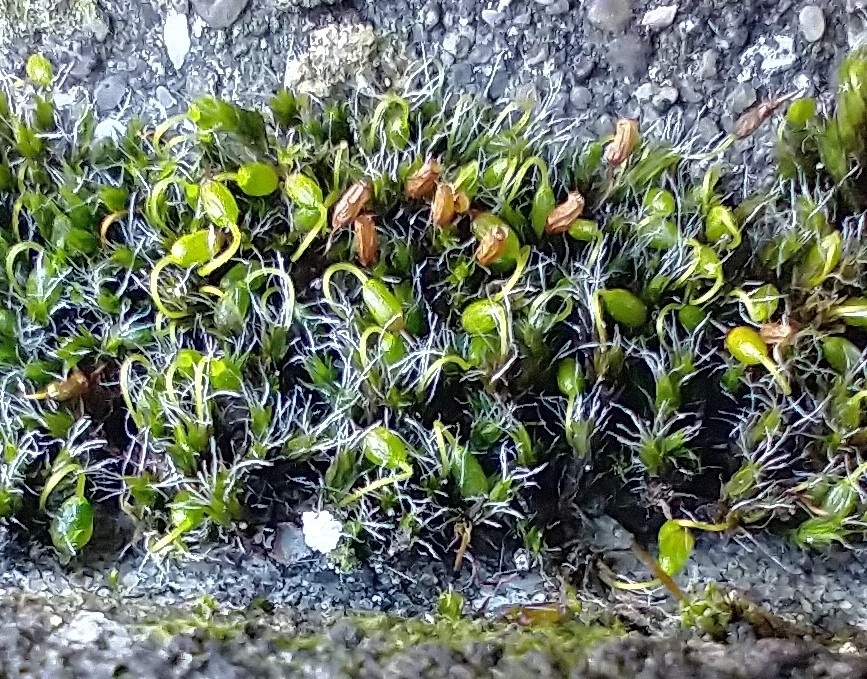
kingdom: Plantae
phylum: Bryophyta
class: Bryopsida
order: Grimmiales
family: Grimmiaceae
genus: Grimmia
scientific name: Grimmia pulvinata
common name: Grey-cushioned grimmia
